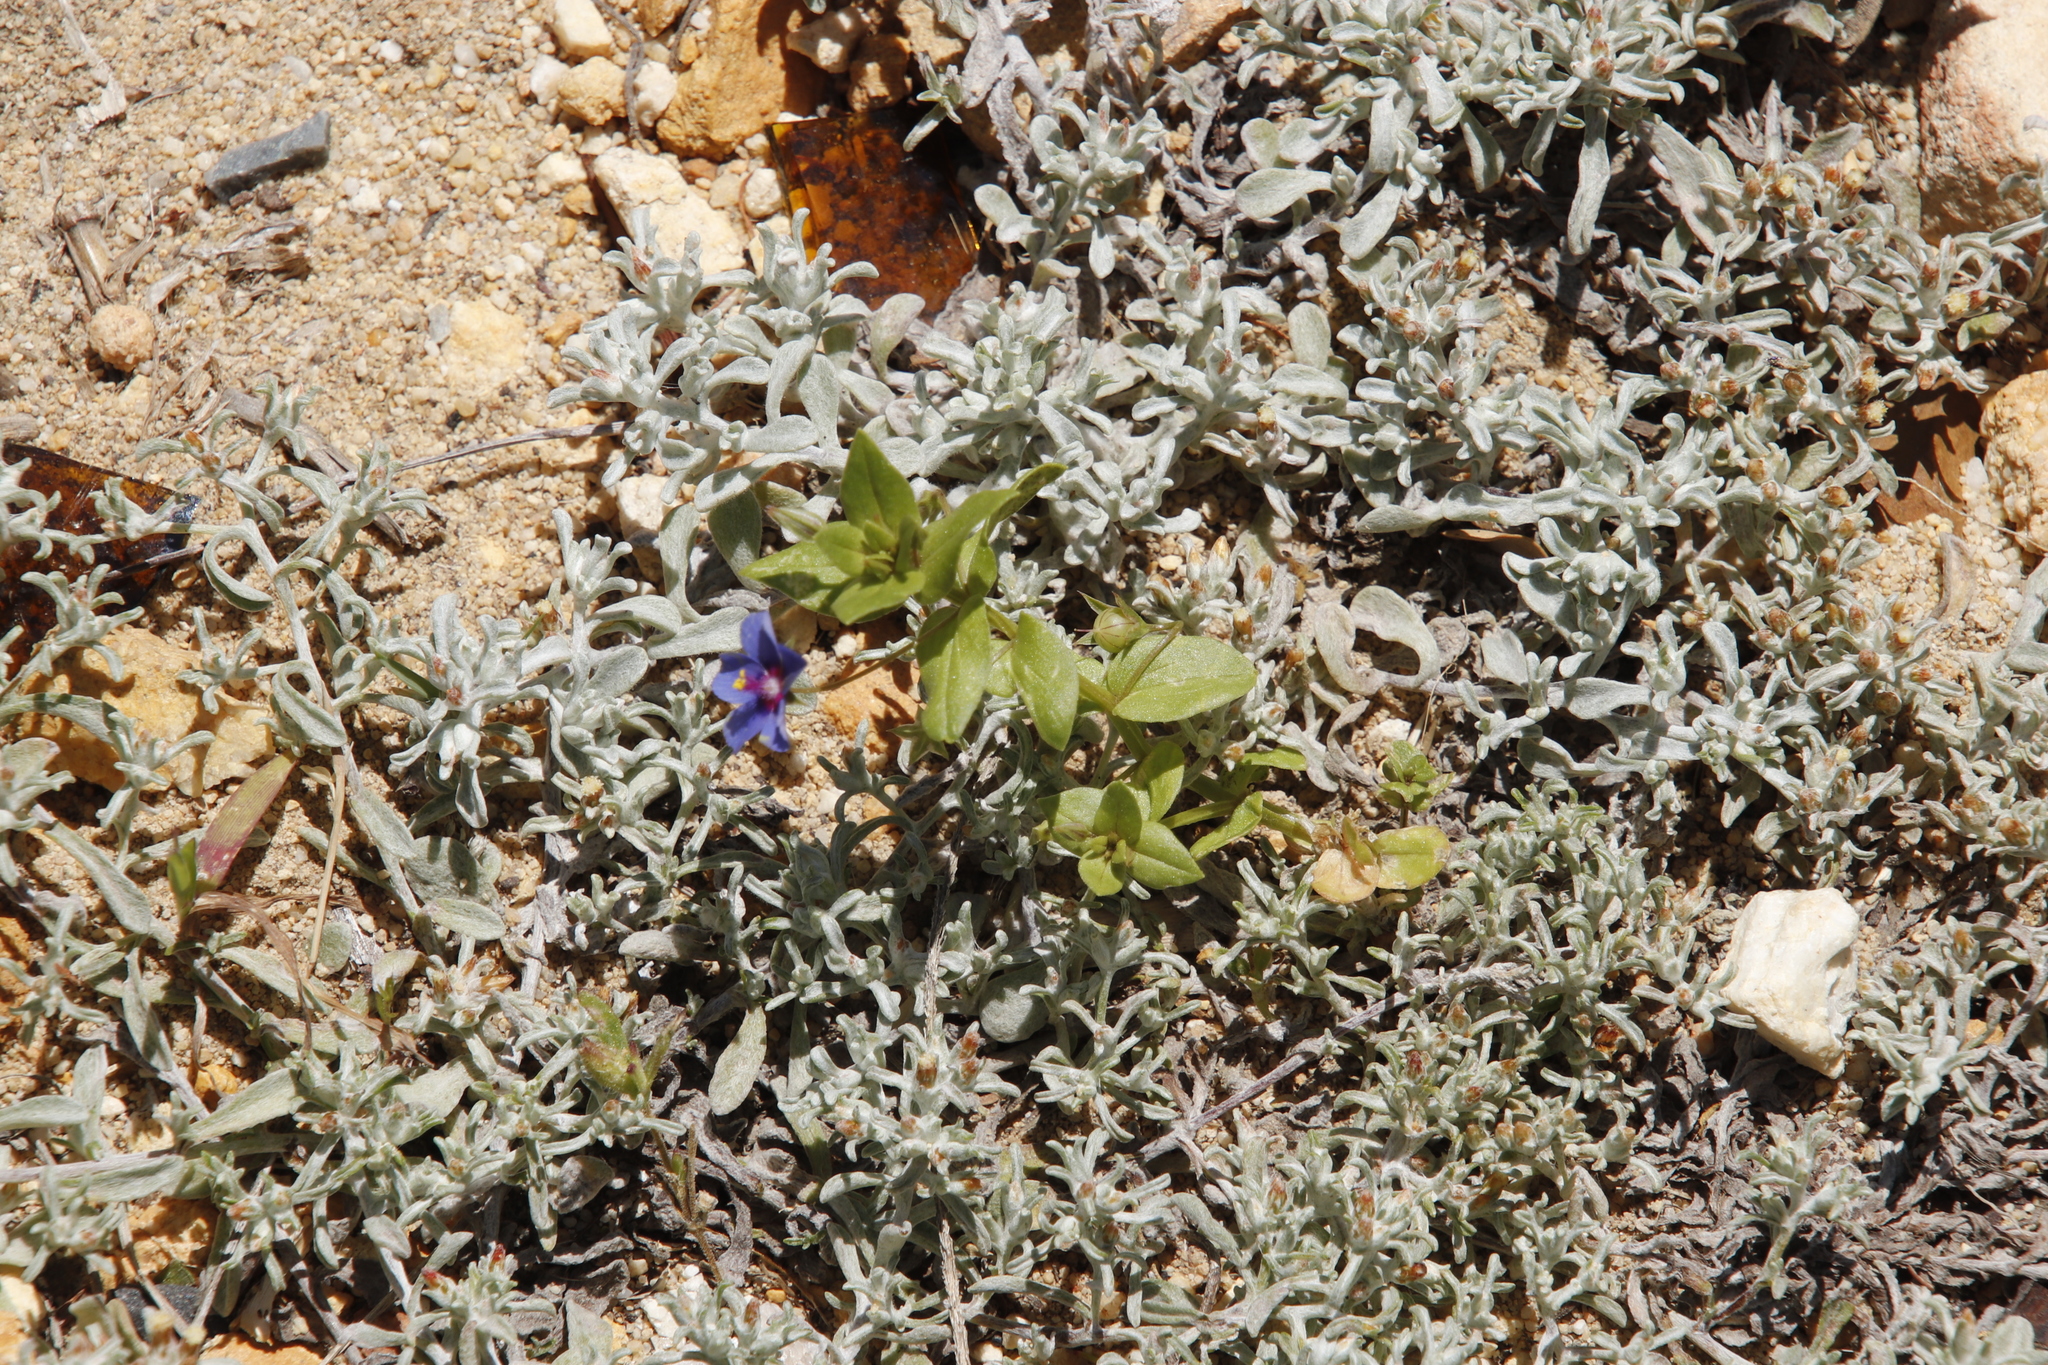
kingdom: Plantae
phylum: Tracheophyta
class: Magnoliopsida
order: Ericales
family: Primulaceae
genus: Lysimachia
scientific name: Lysimachia loeflingii
